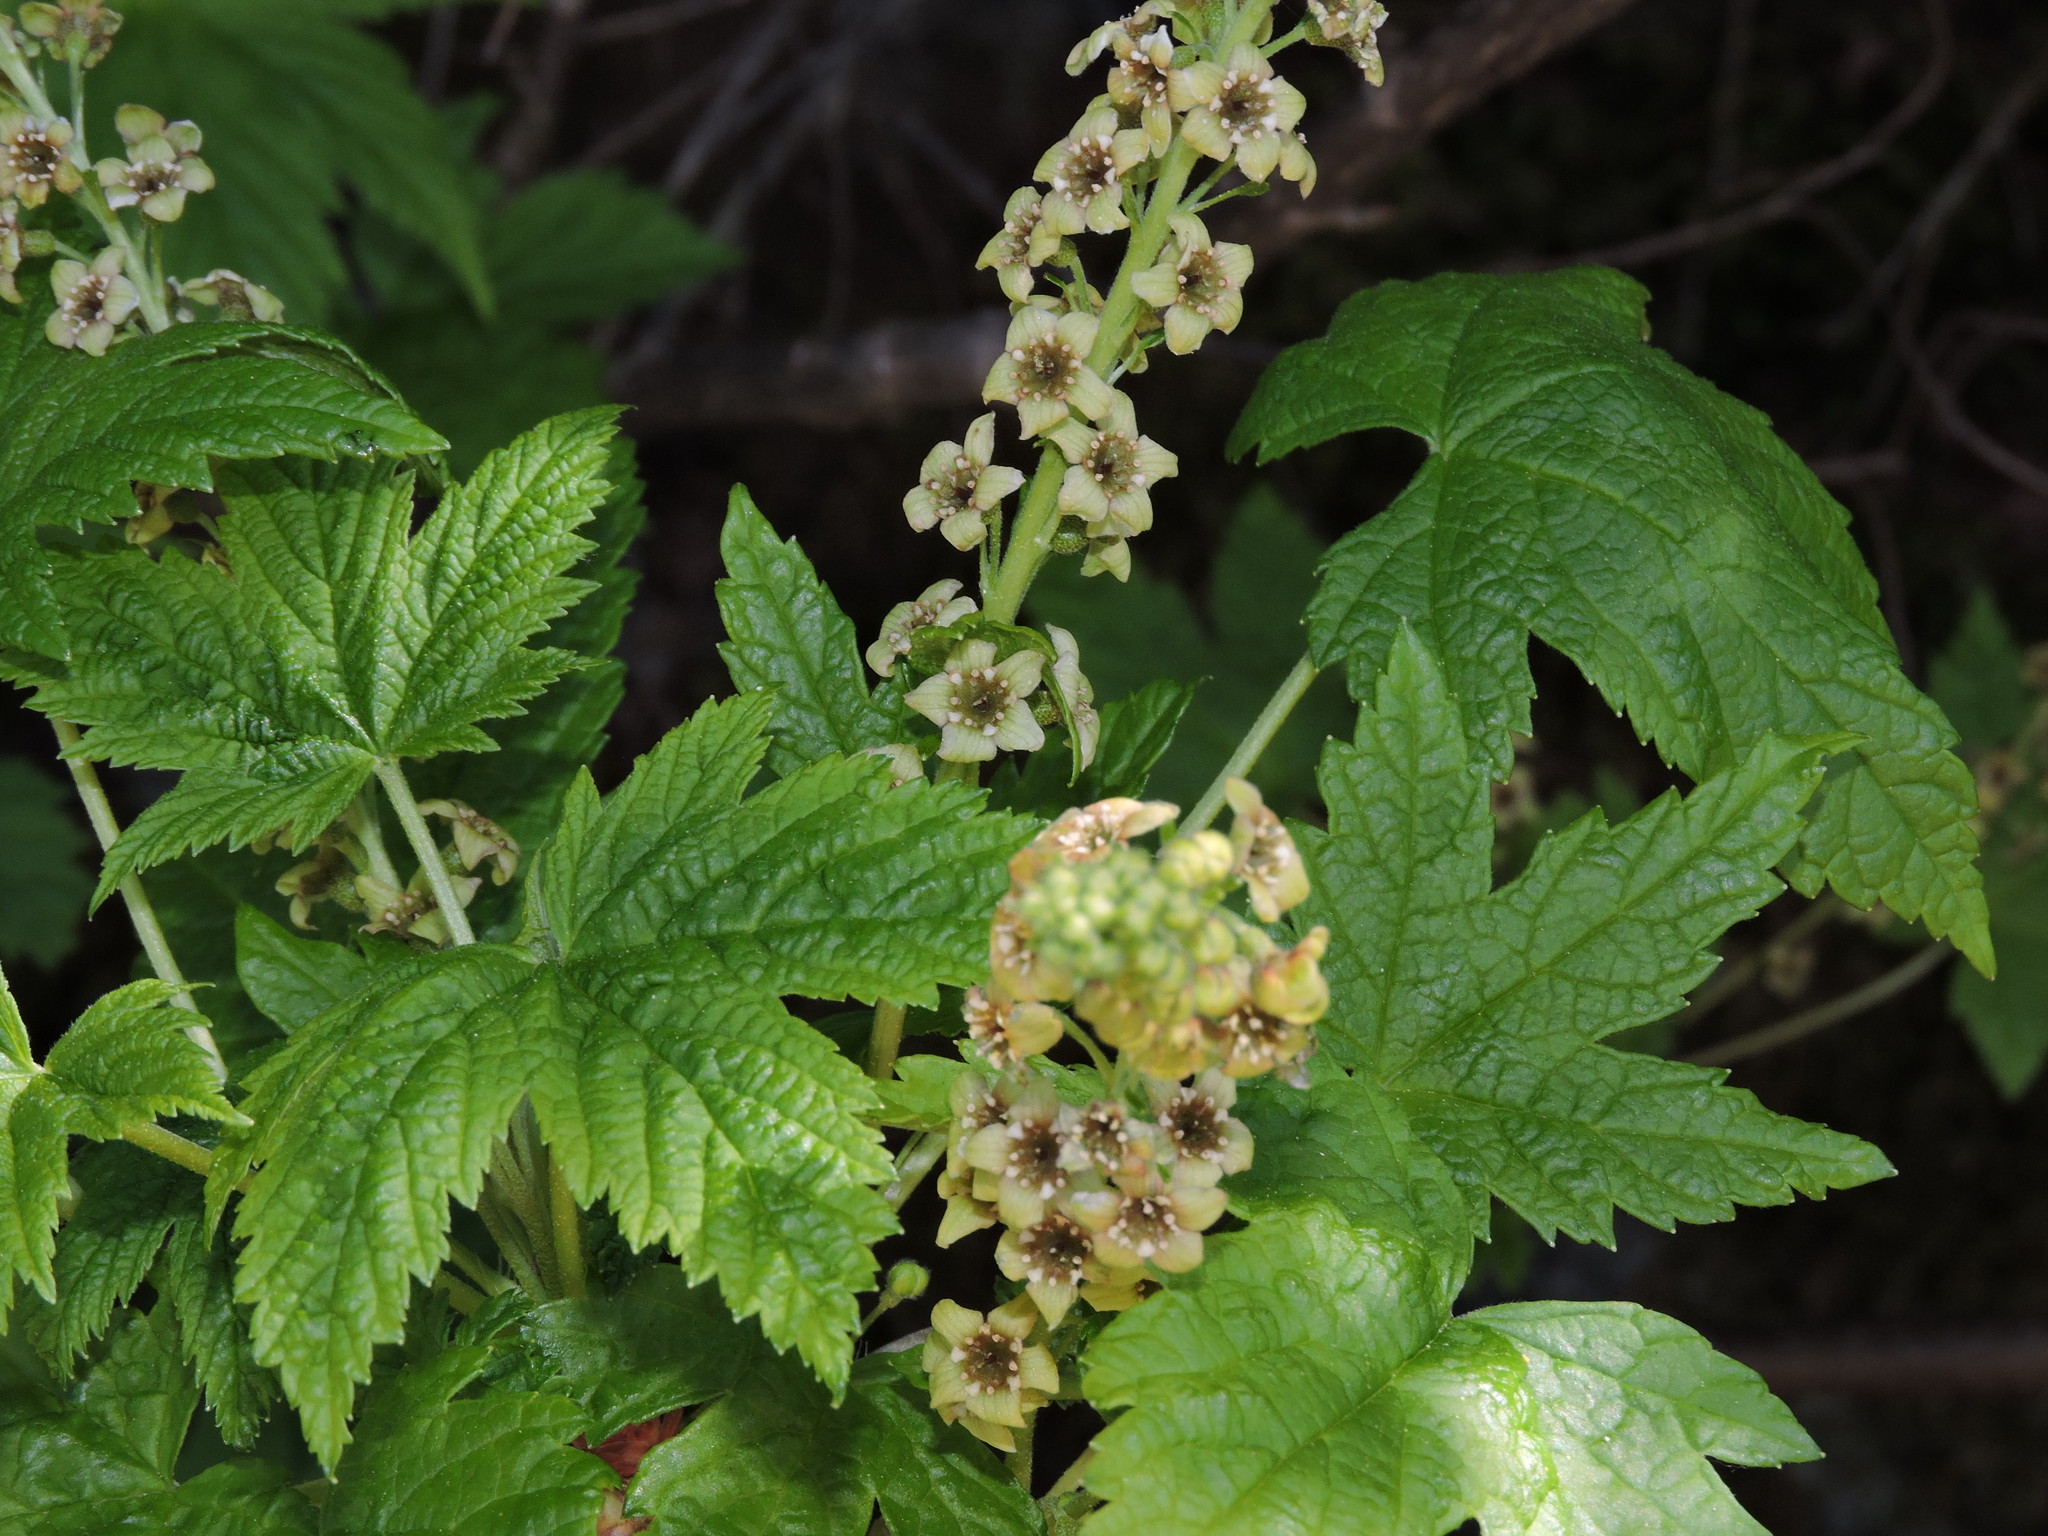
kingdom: Plantae
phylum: Tracheophyta
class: Magnoliopsida
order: Saxifragales
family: Grossulariaceae
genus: Ribes
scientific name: Ribes bracteosum
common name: California black currant
